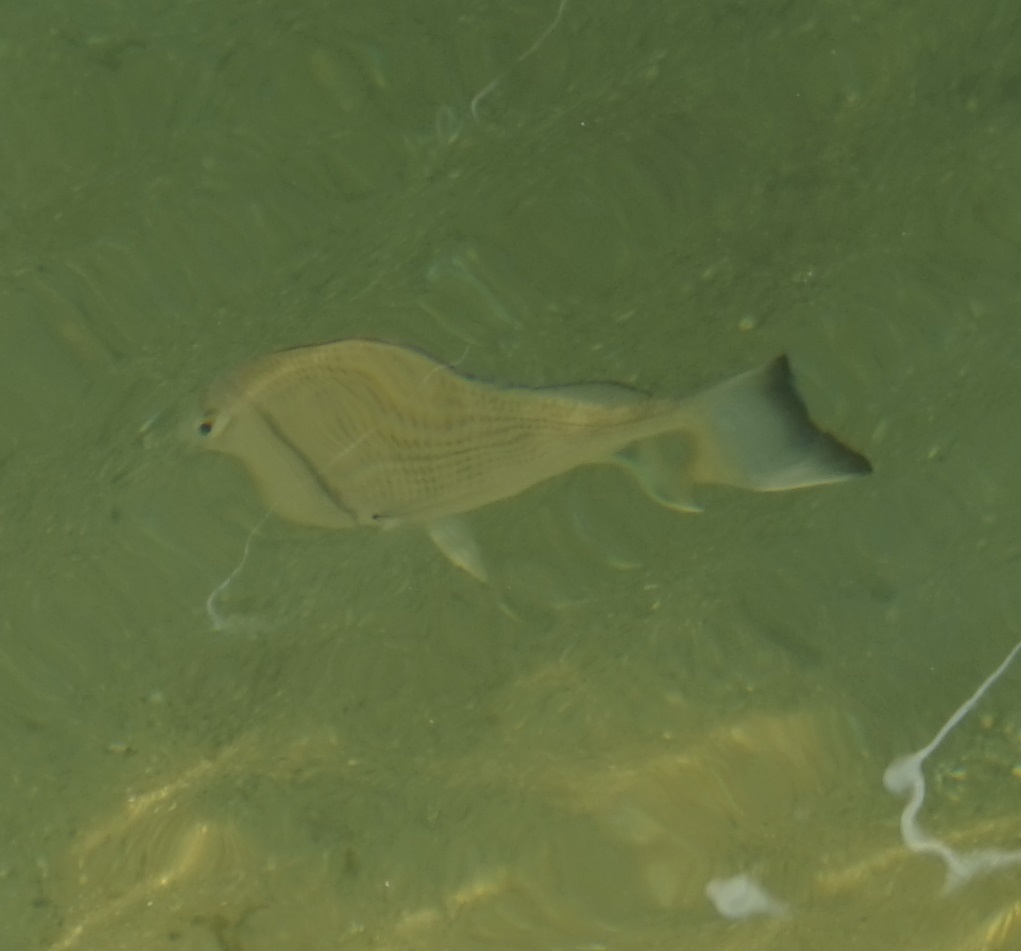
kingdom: Animalia
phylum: Chordata
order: Perciformes
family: Sparidae
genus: Acanthopagrus
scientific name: Acanthopagrus australis
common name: Surf bream
